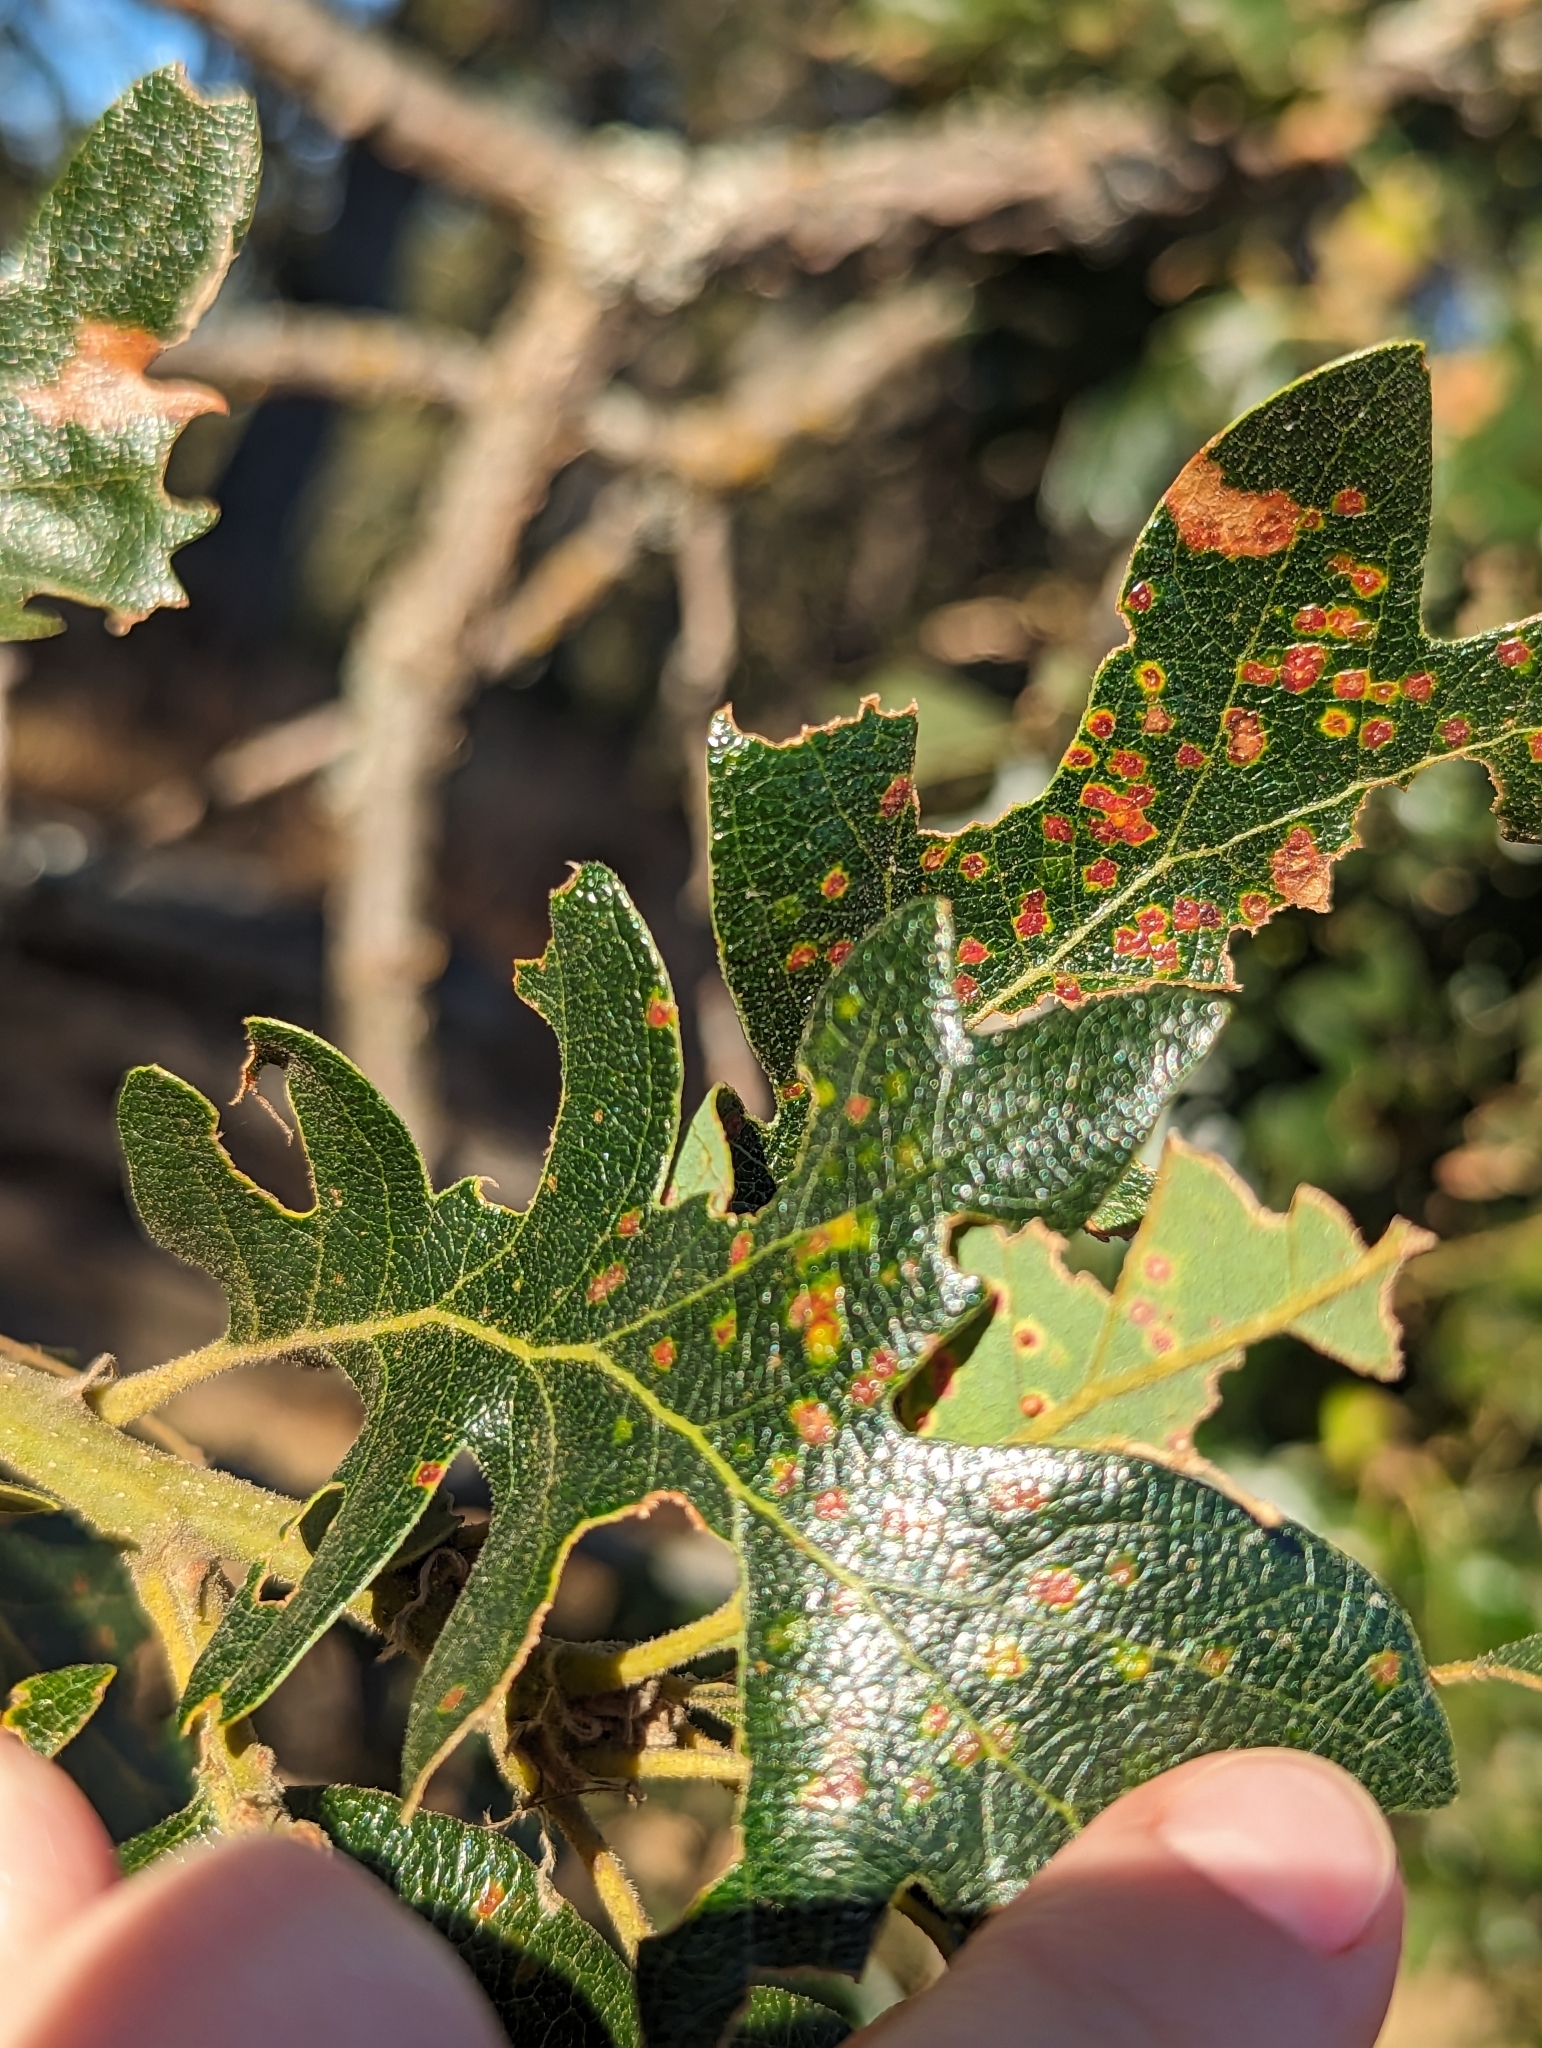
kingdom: Animalia
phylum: Arthropoda
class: Insecta
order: Hymenoptera
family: Cynipidae
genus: Neuroterus
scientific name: Neuroterus saltarius
